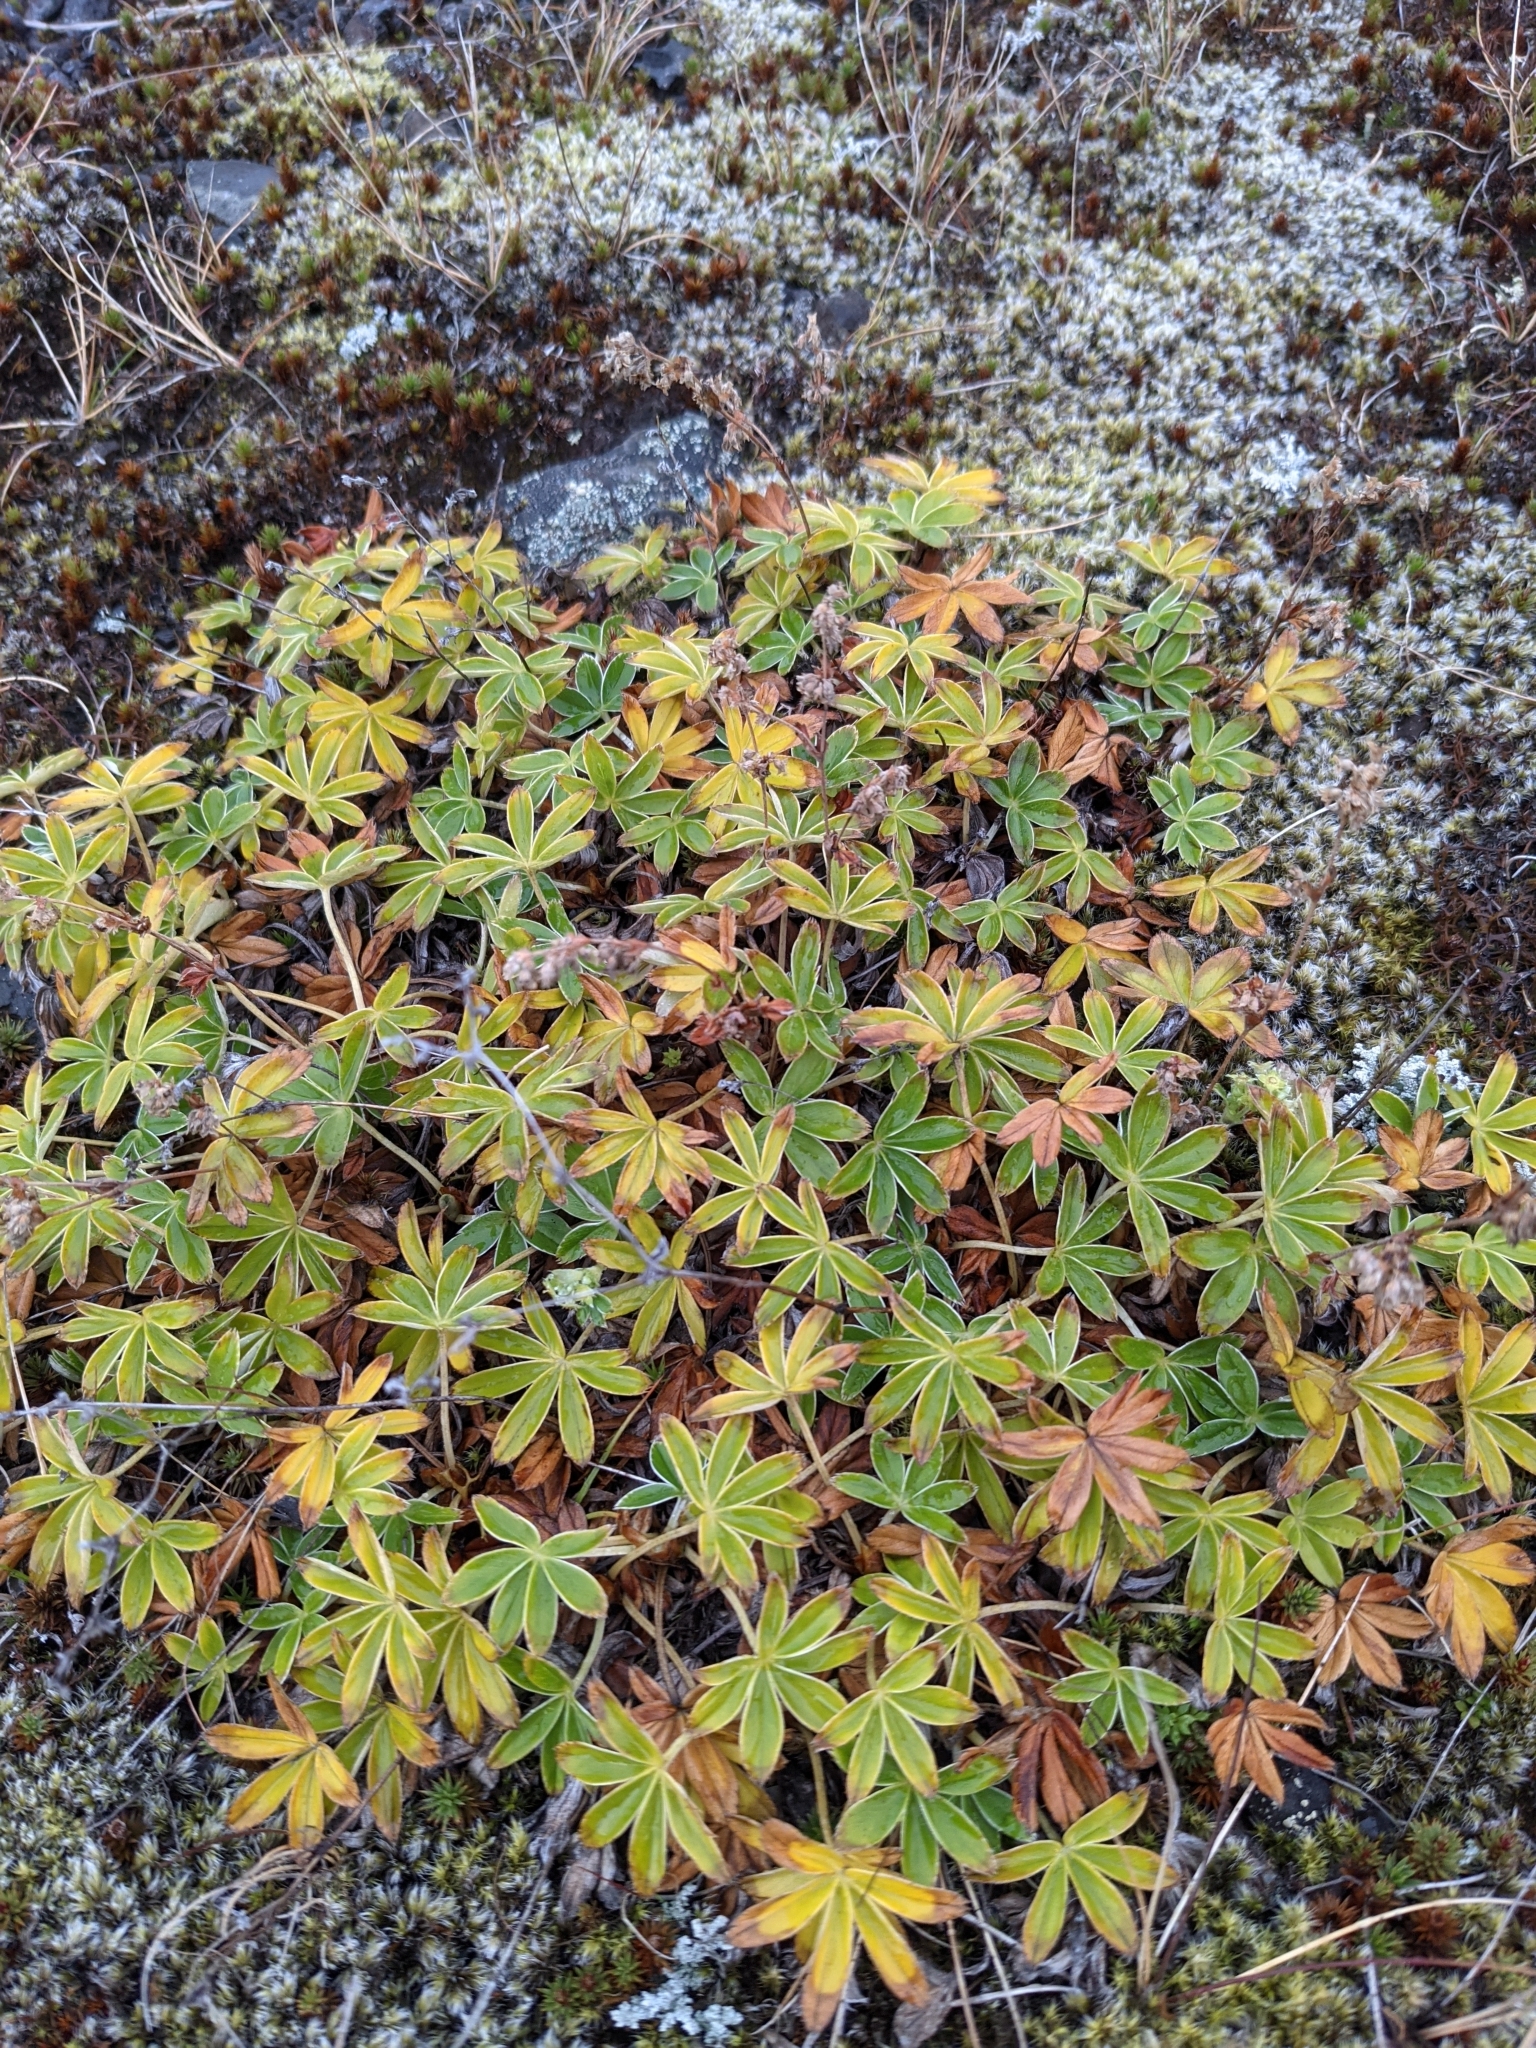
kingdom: Plantae
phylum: Tracheophyta
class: Magnoliopsida
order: Rosales
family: Rosaceae
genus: Alchemilla
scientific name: Alchemilla alpina
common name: Alpine lady's-mantle
